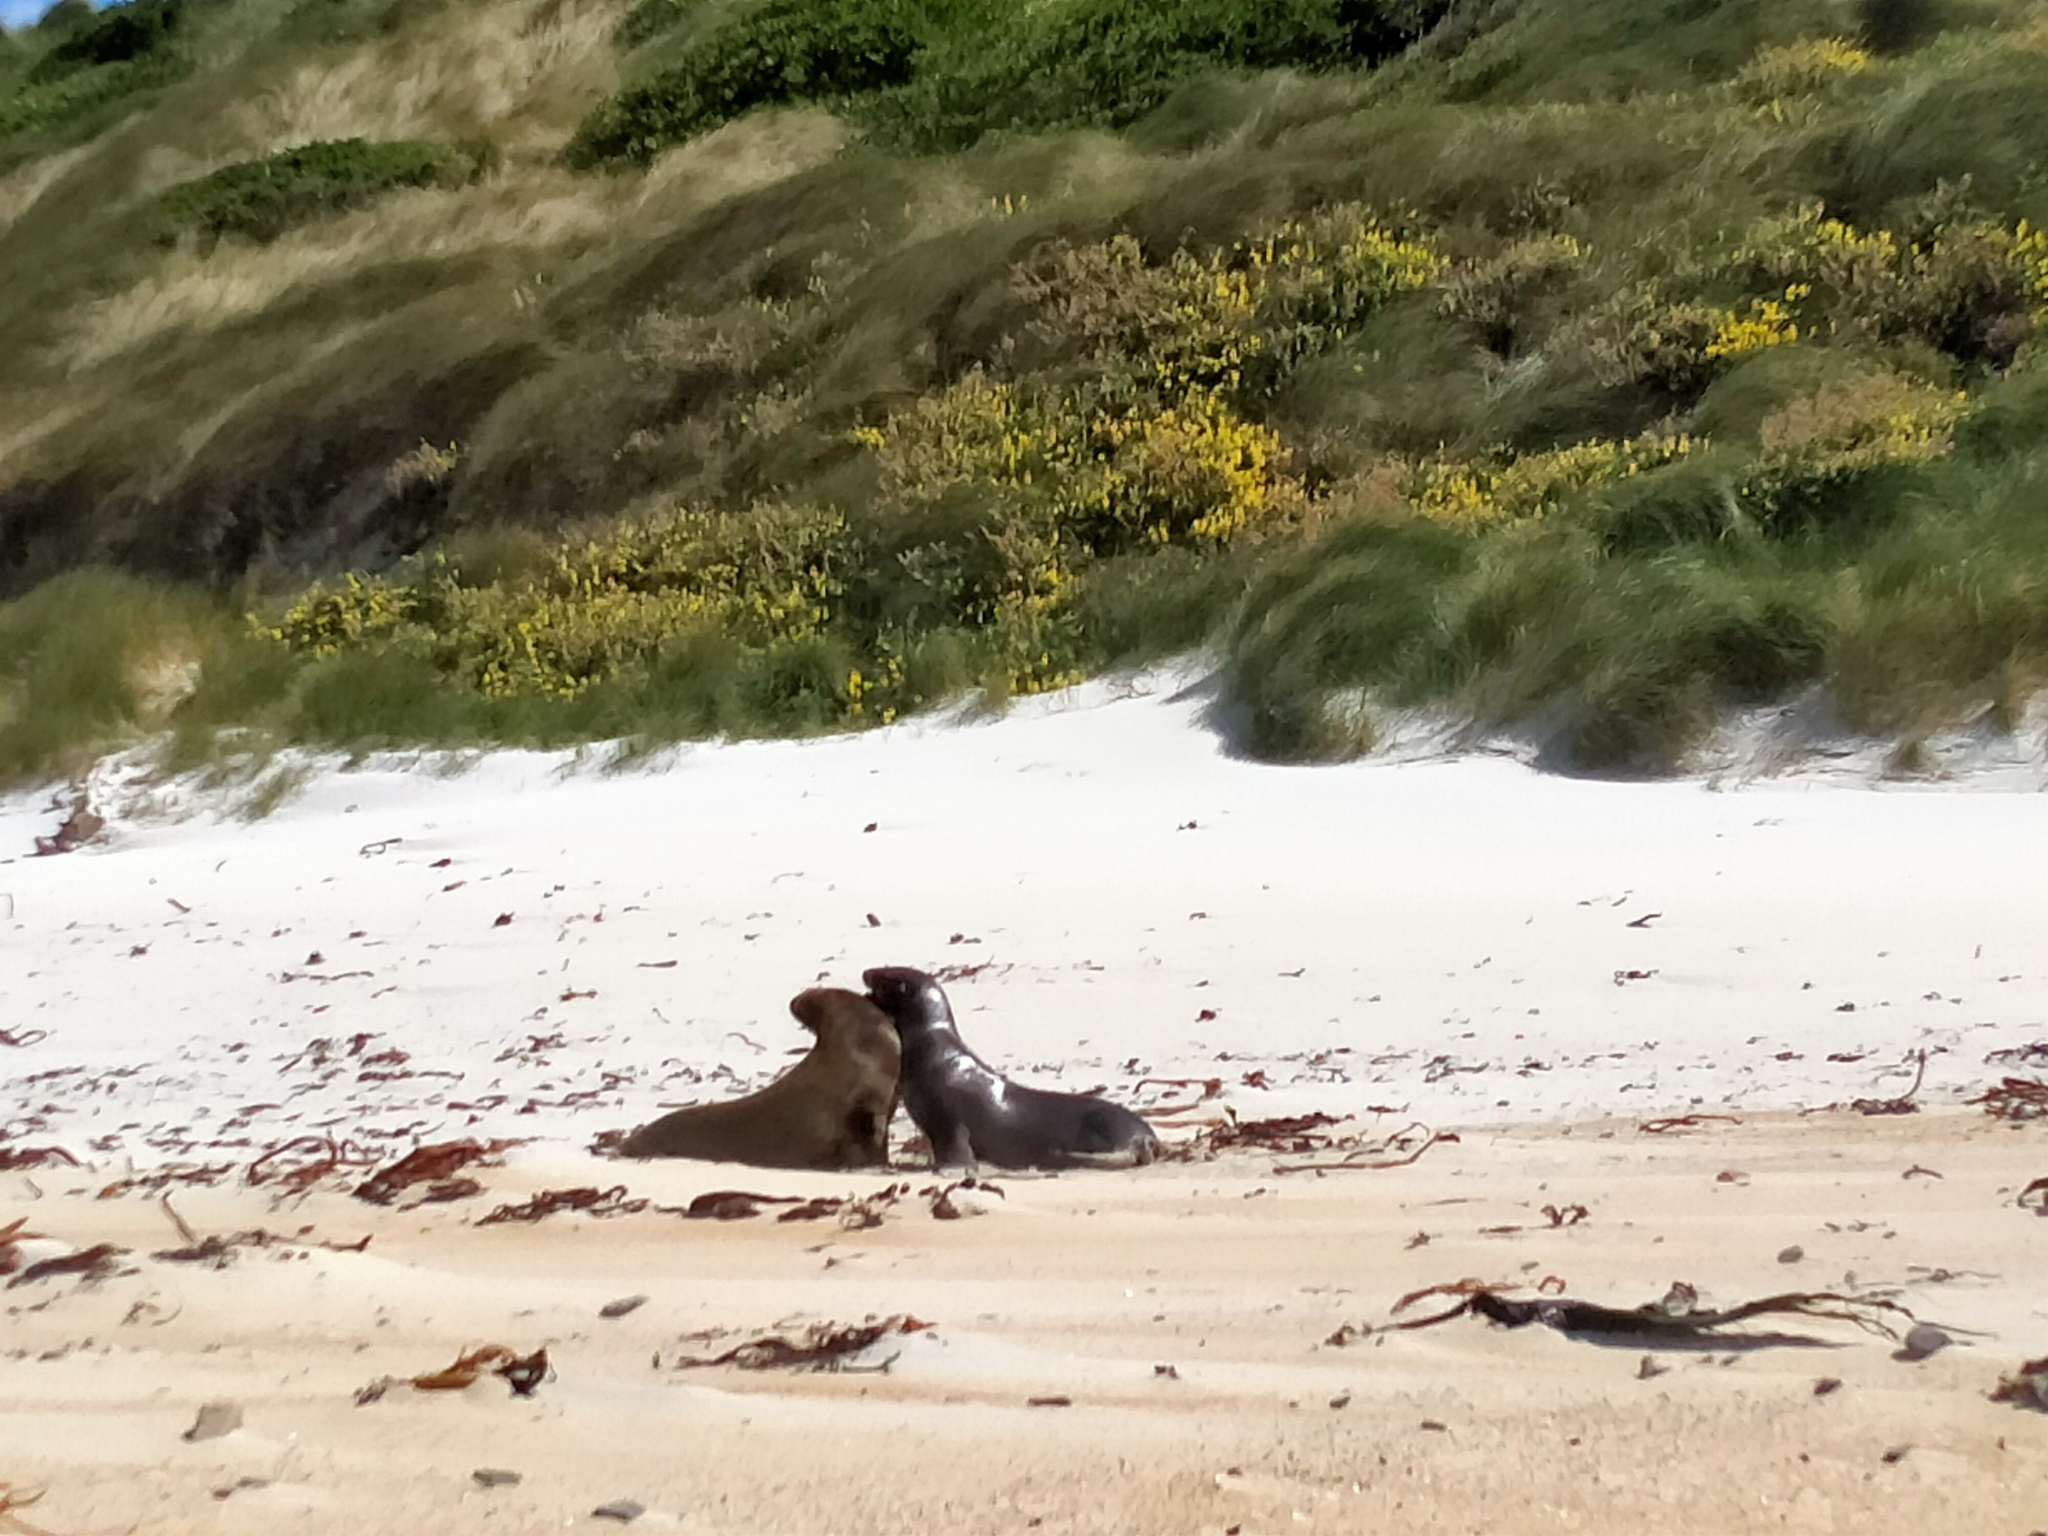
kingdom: Animalia
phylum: Chordata
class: Mammalia
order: Carnivora
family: Otariidae
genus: Phocarctos
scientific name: Phocarctos hookeri
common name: New zealand sea lion
